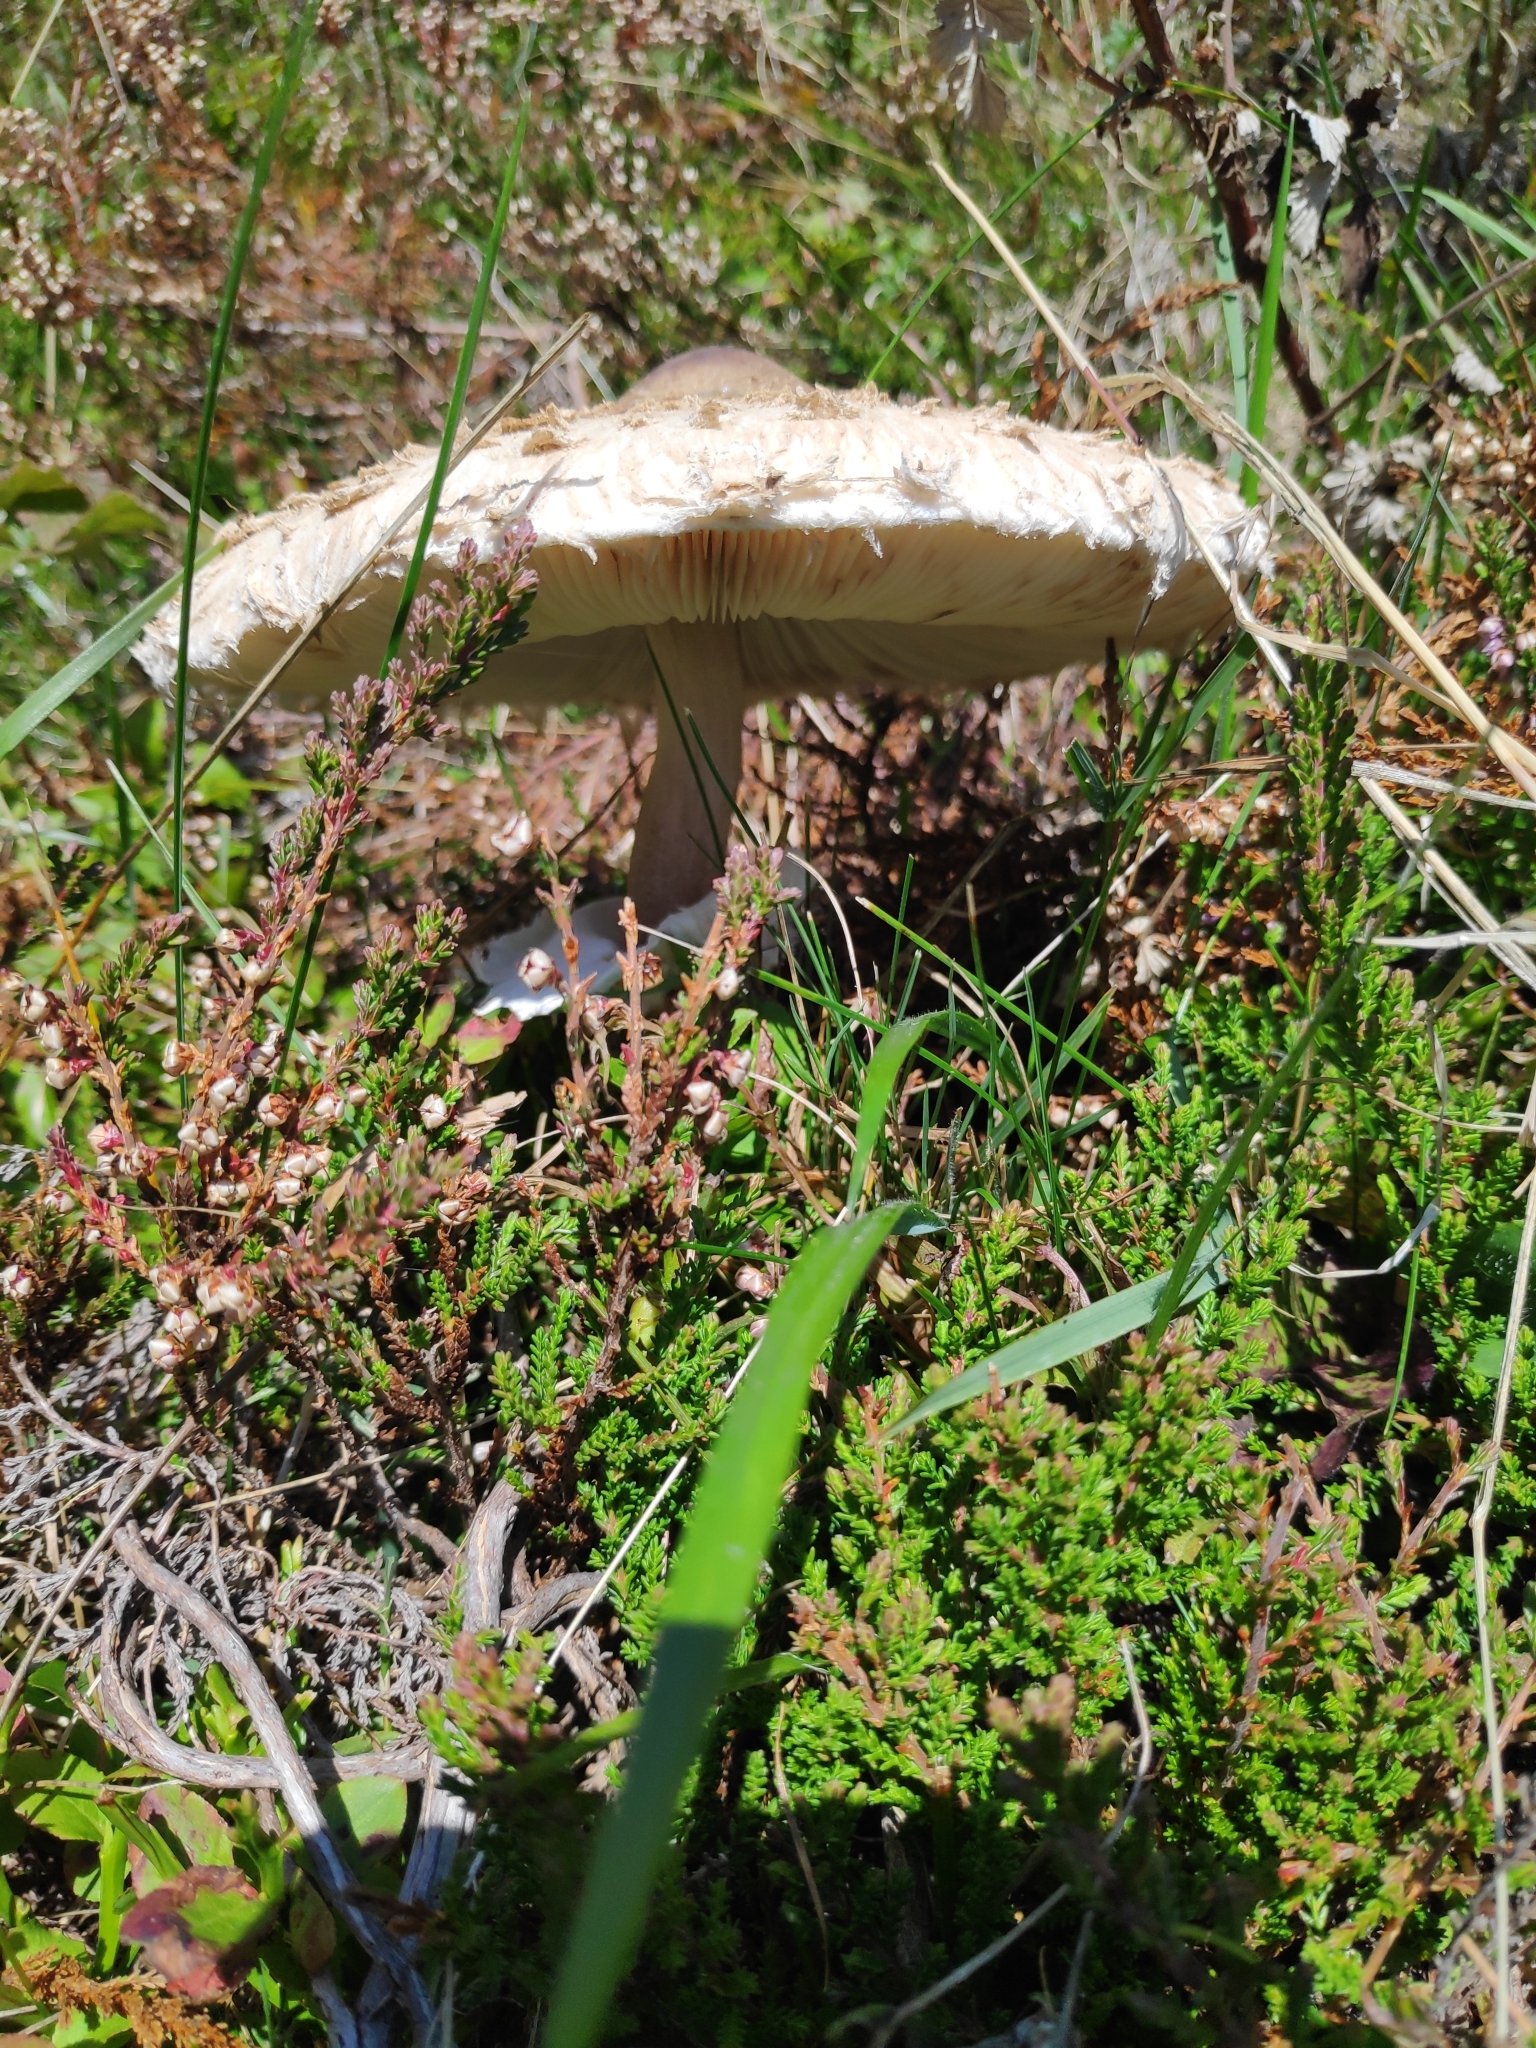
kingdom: Fungi
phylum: Basidiomycota
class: Agaricomycetes
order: Agaricales
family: Agaricaceae
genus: Macrolepiota
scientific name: Macrolepiota procera
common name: Parasol
